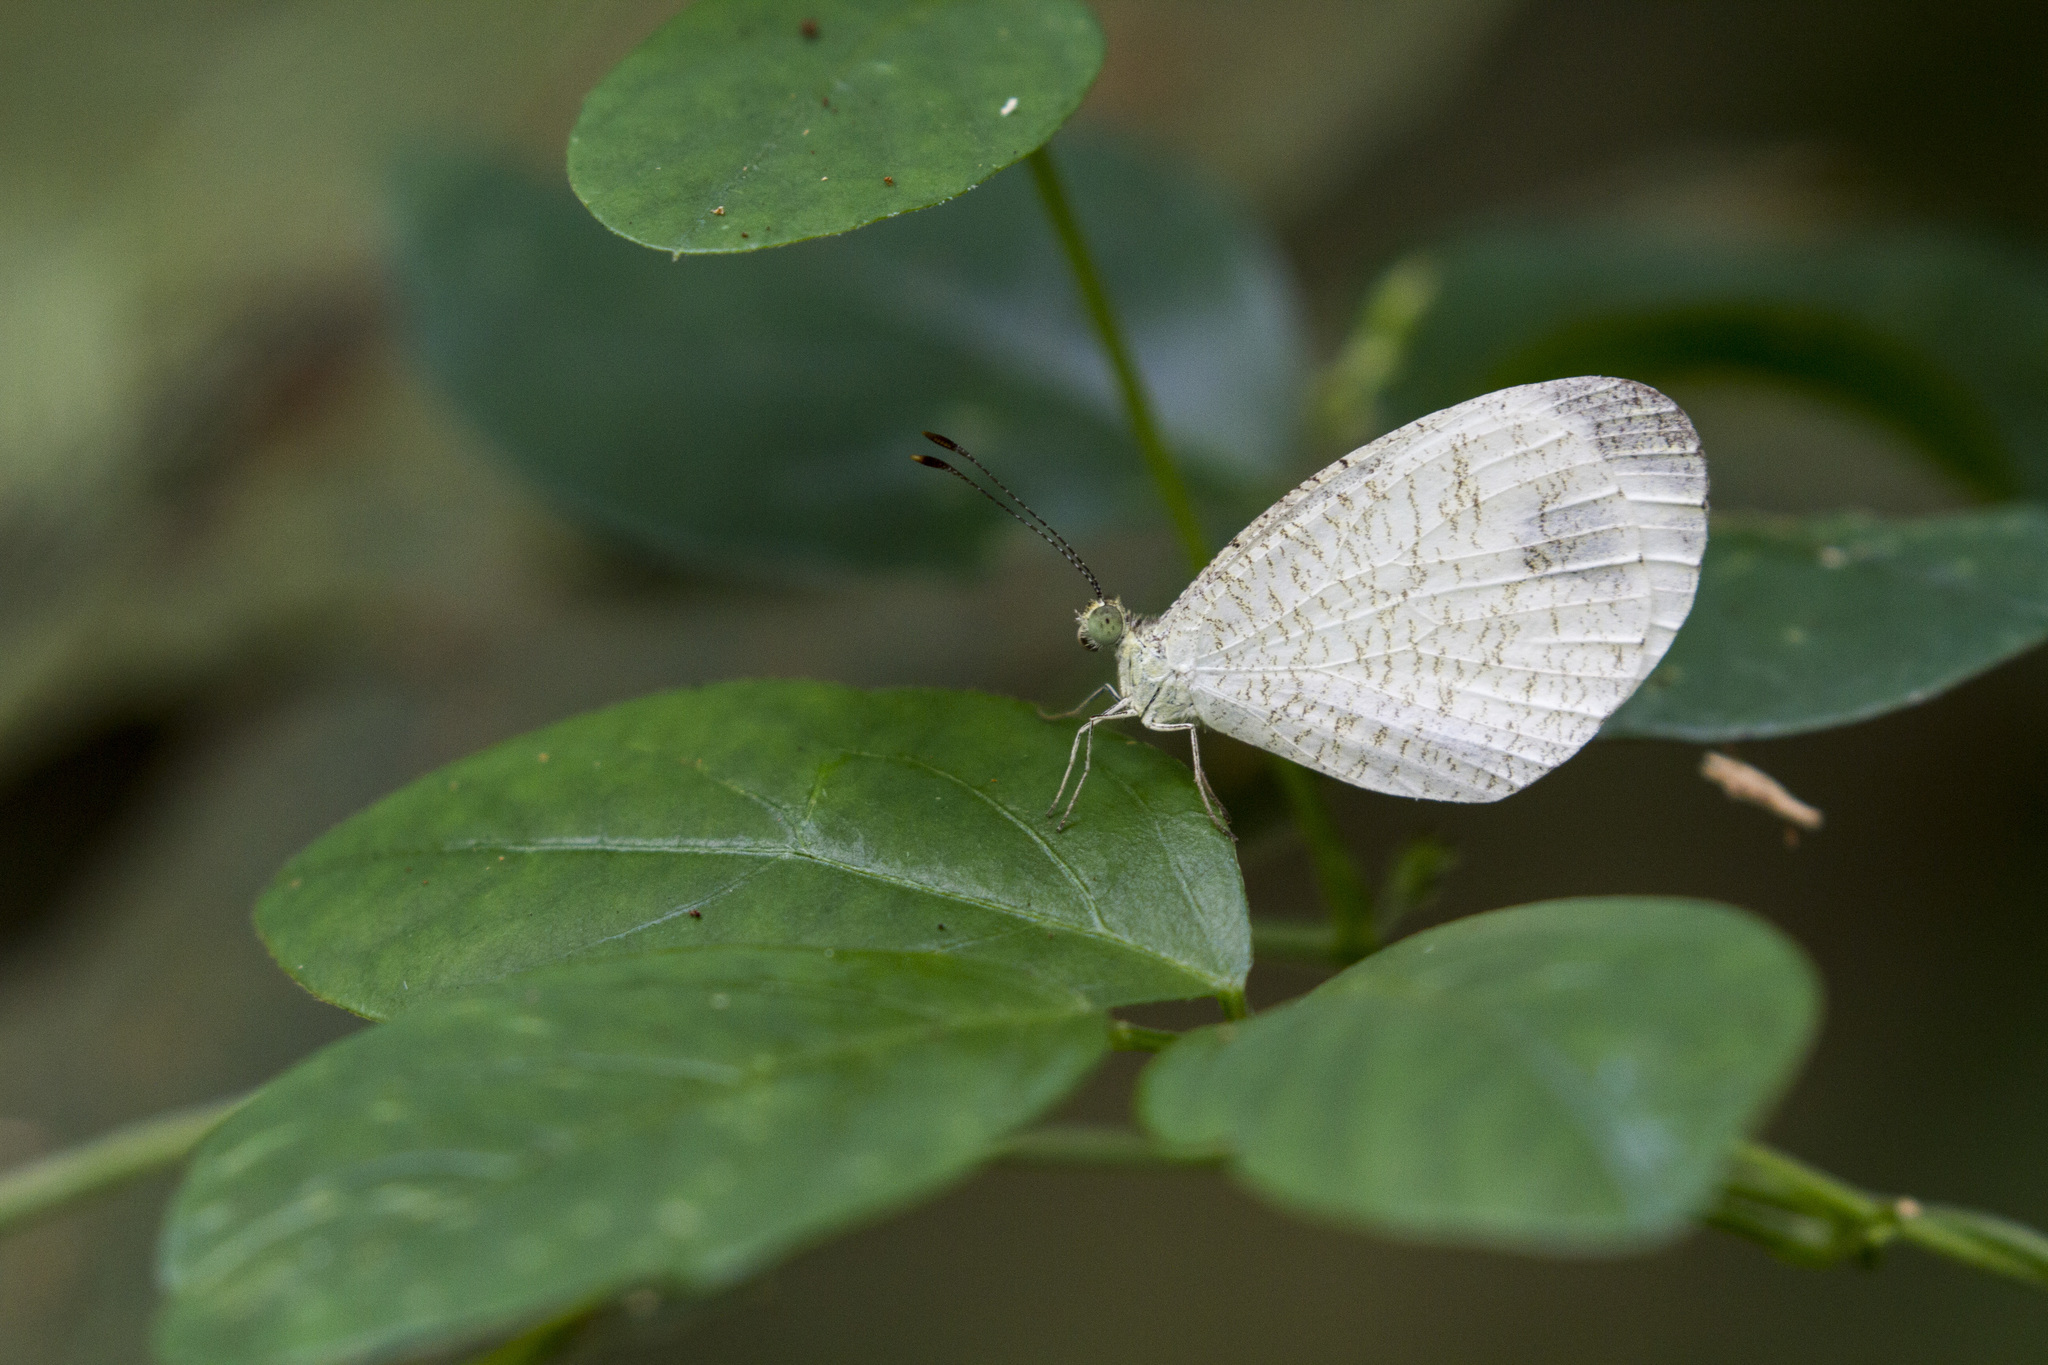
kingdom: Animalia
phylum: Arthropoda
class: Insecta
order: Lepidoptera
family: Pieridae
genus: Leptosia
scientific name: Leptosia nina
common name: Psyche
